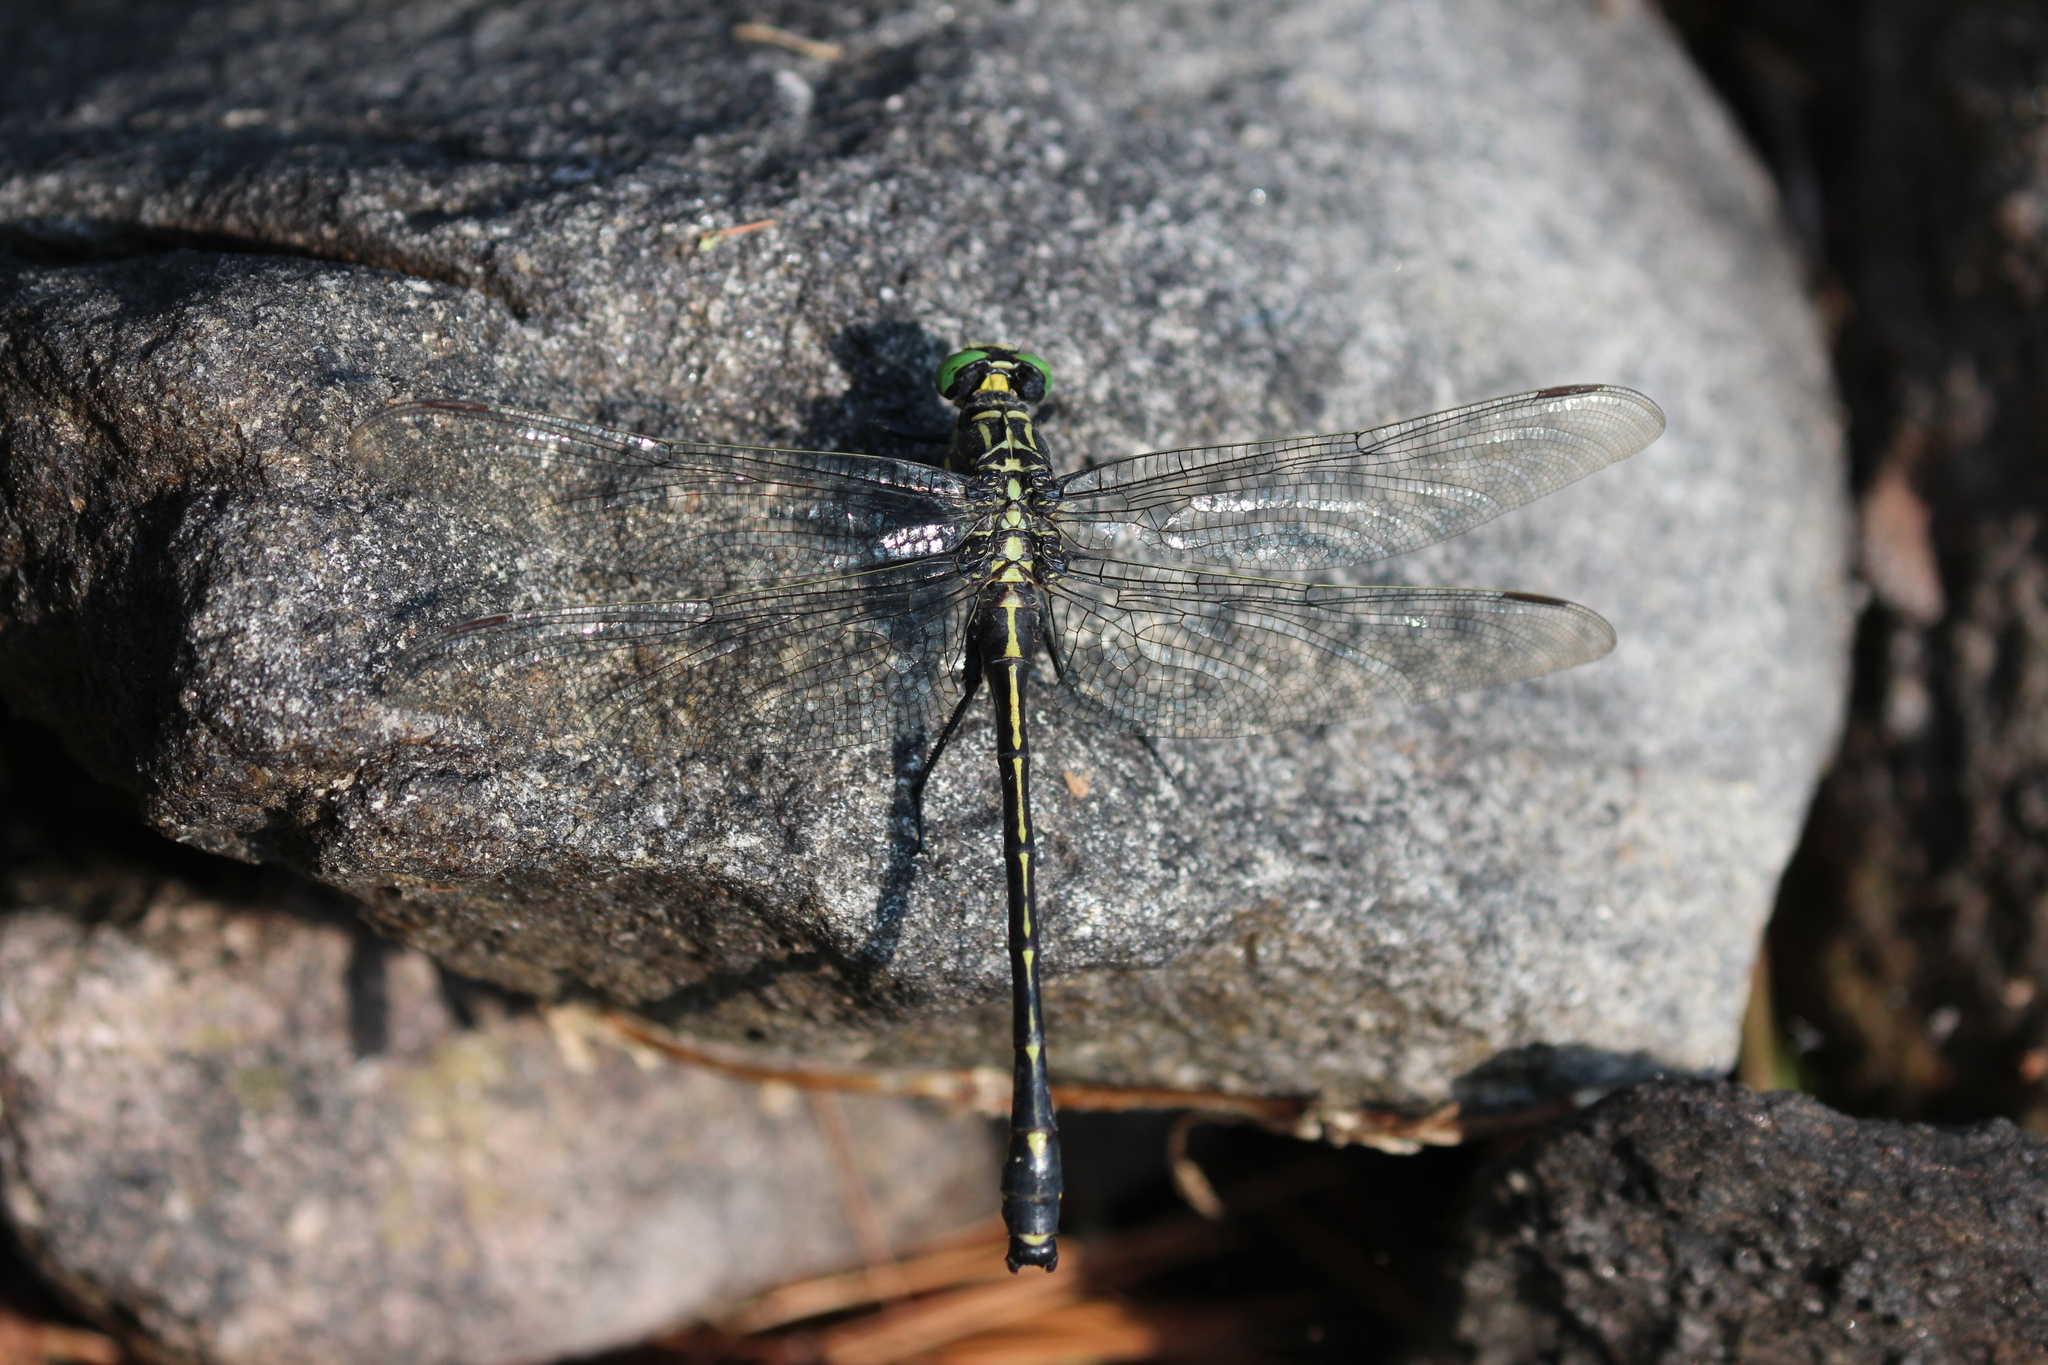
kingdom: Animalia
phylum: Arthropoda
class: Insecta
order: Odonata
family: Gomphidae
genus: Hagenius
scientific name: Hagenius brevistylus
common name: Dragonhunter
